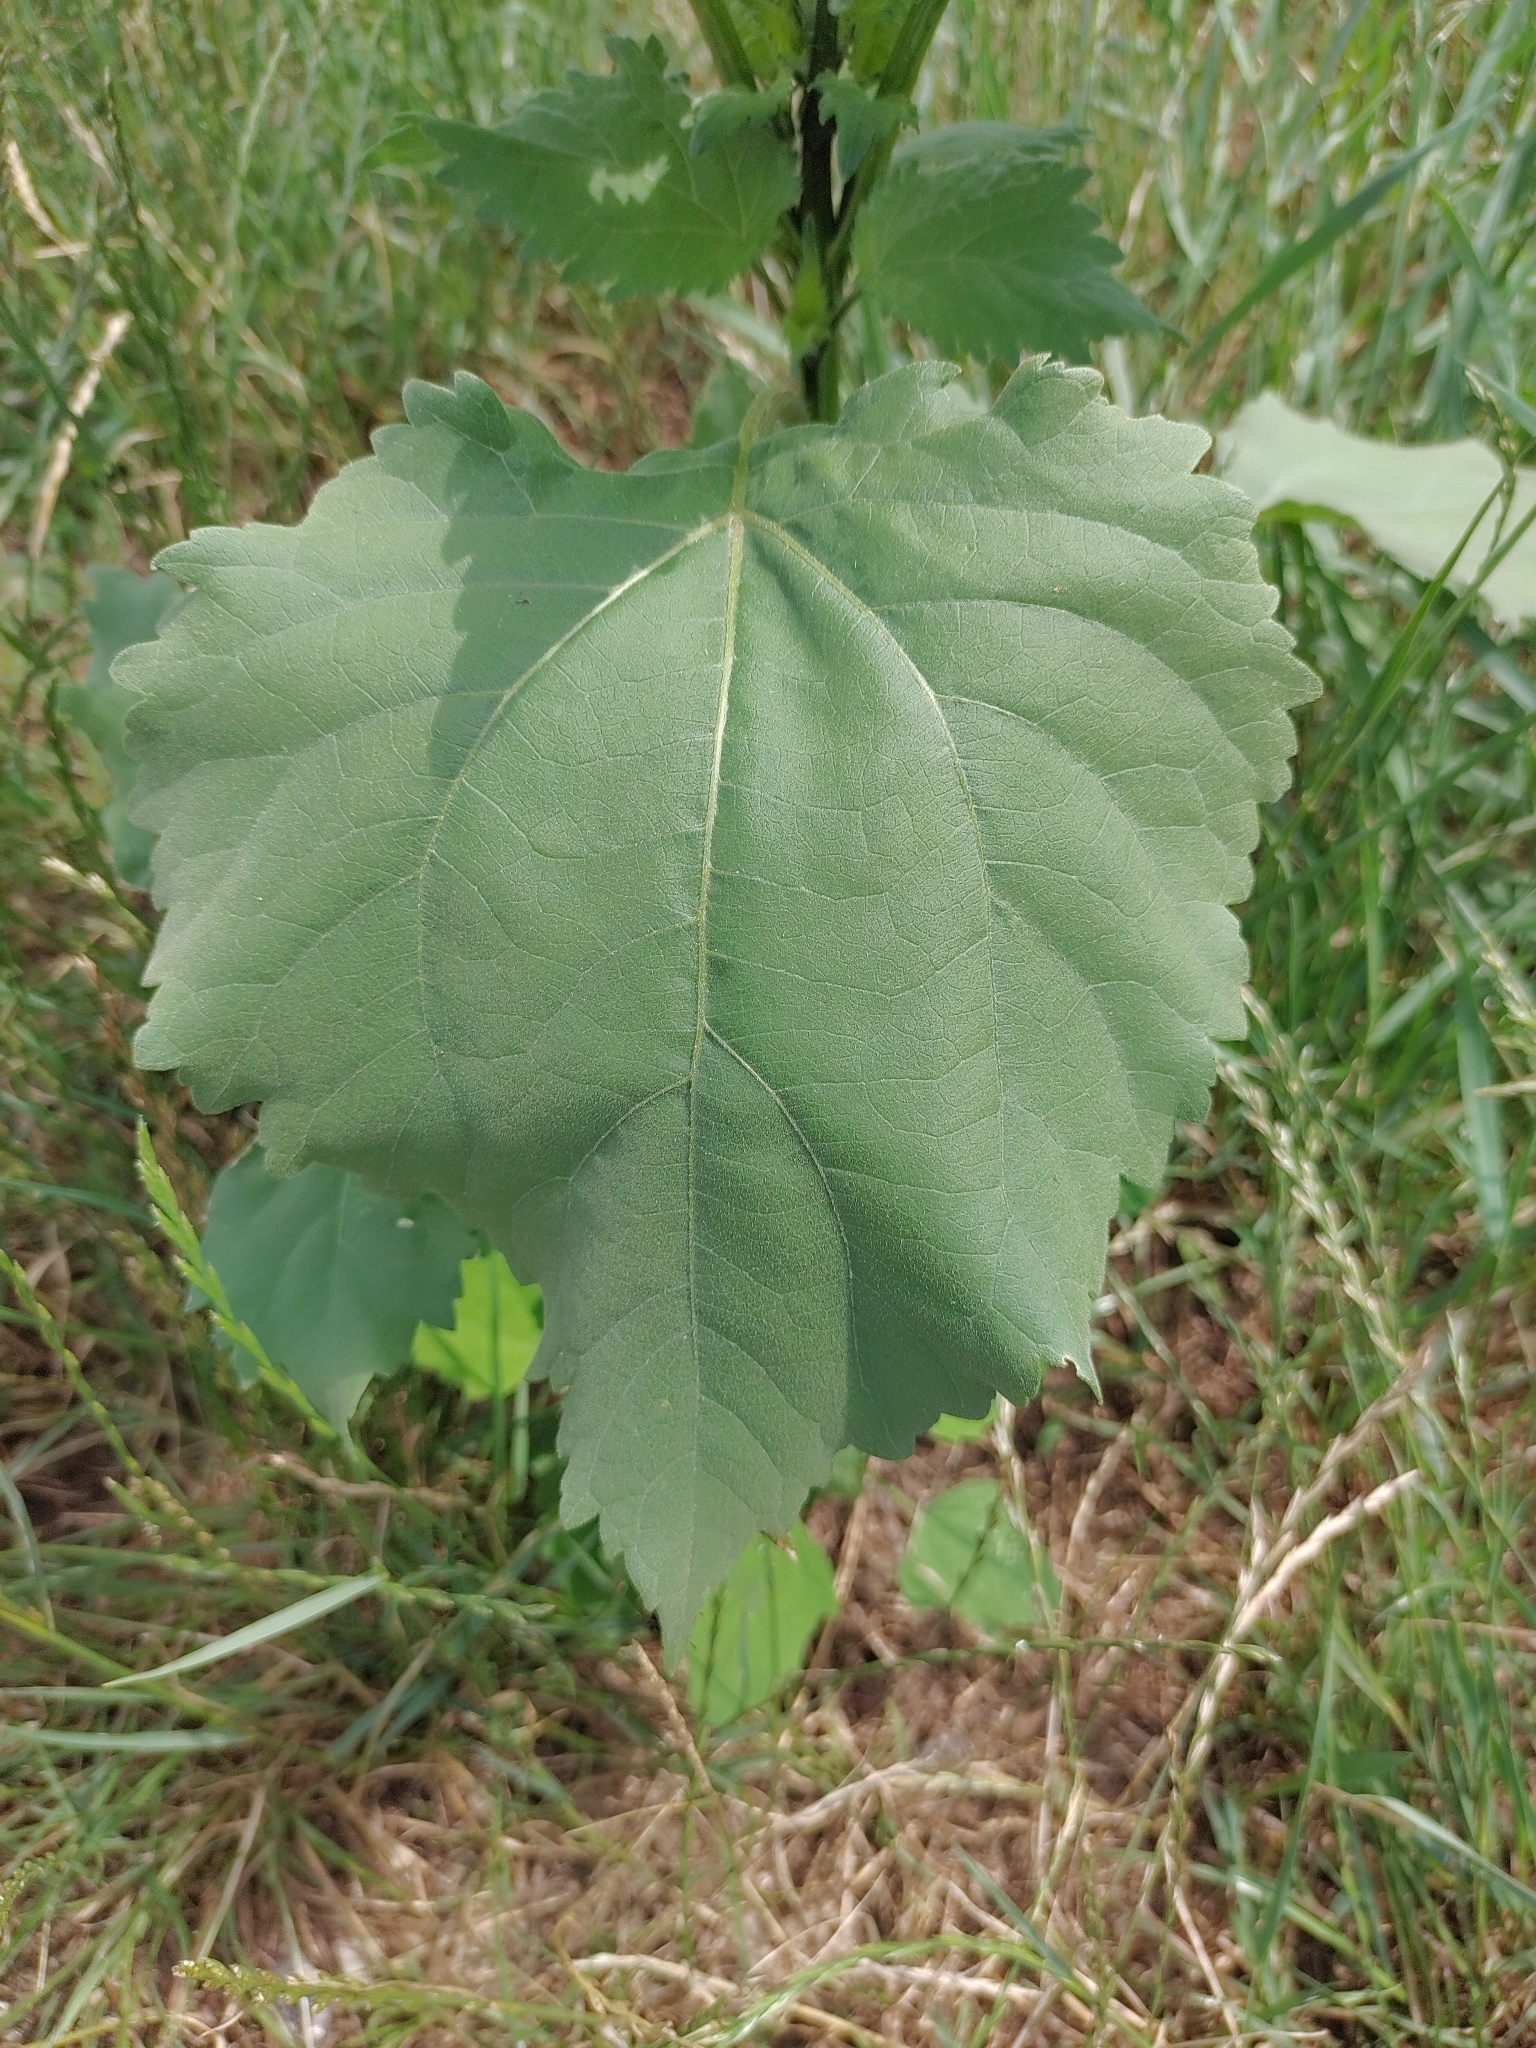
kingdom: Plantae
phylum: Tracheophyta
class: Magnoliopsida
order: Asterales
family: Asteraceae
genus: Cyclachaena
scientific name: Cyclachaena xanthiifolia
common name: Giant sumpweed
